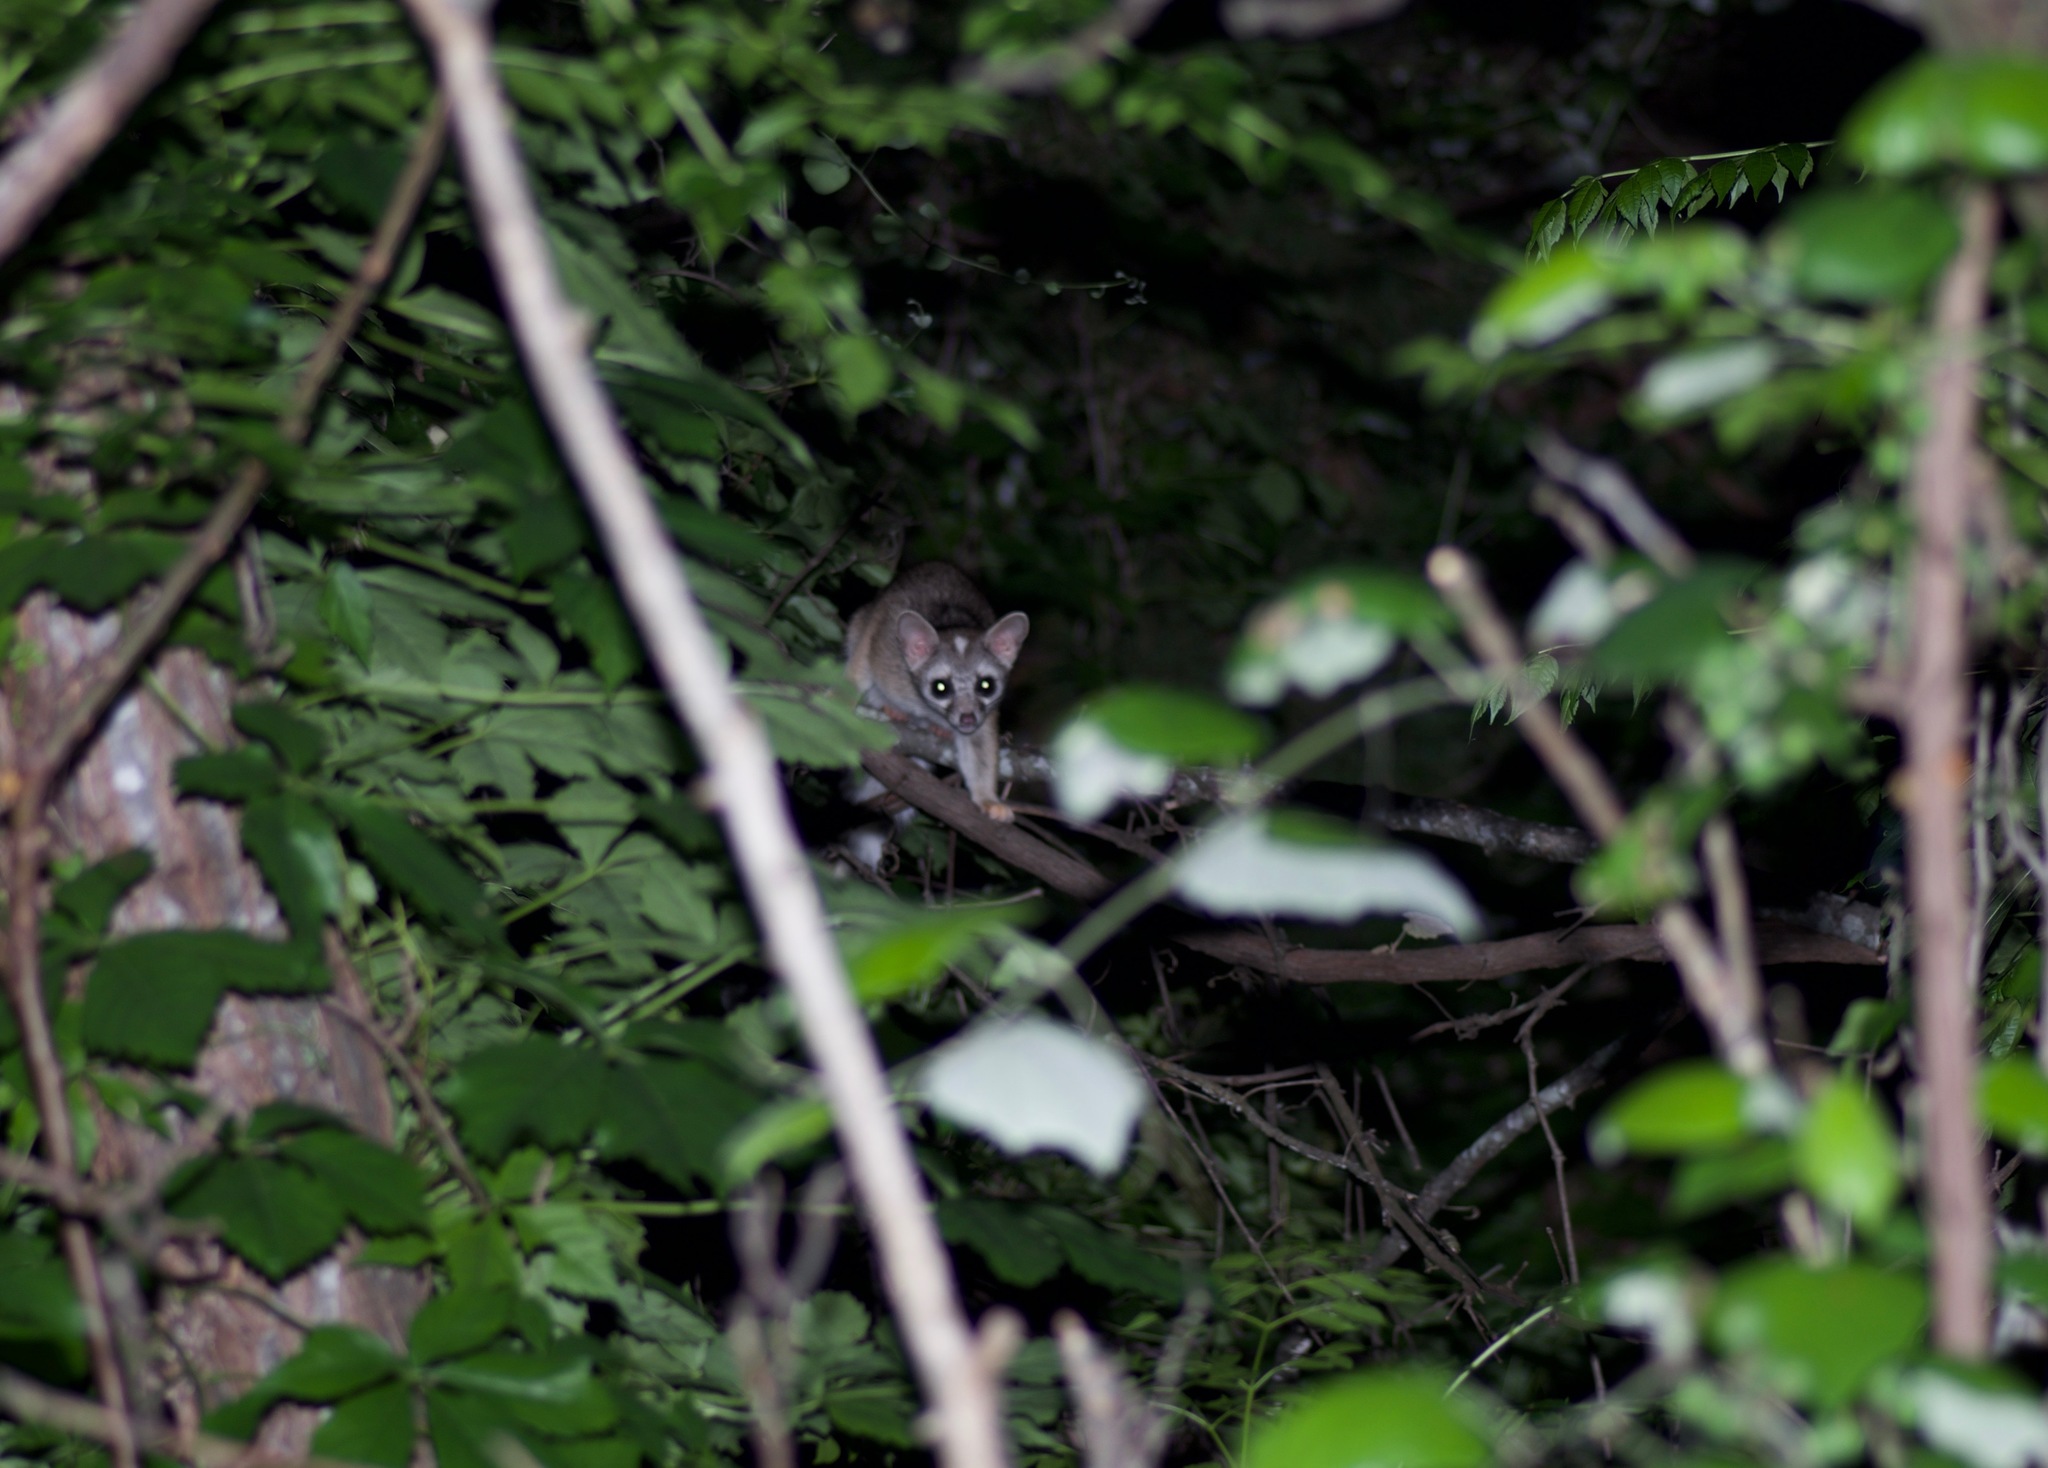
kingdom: Animalia
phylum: Chordata
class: Mammalia
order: Carnivora
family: Procyonidae
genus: Bassariscus
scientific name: Bassariscus astutus
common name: Ringtail
